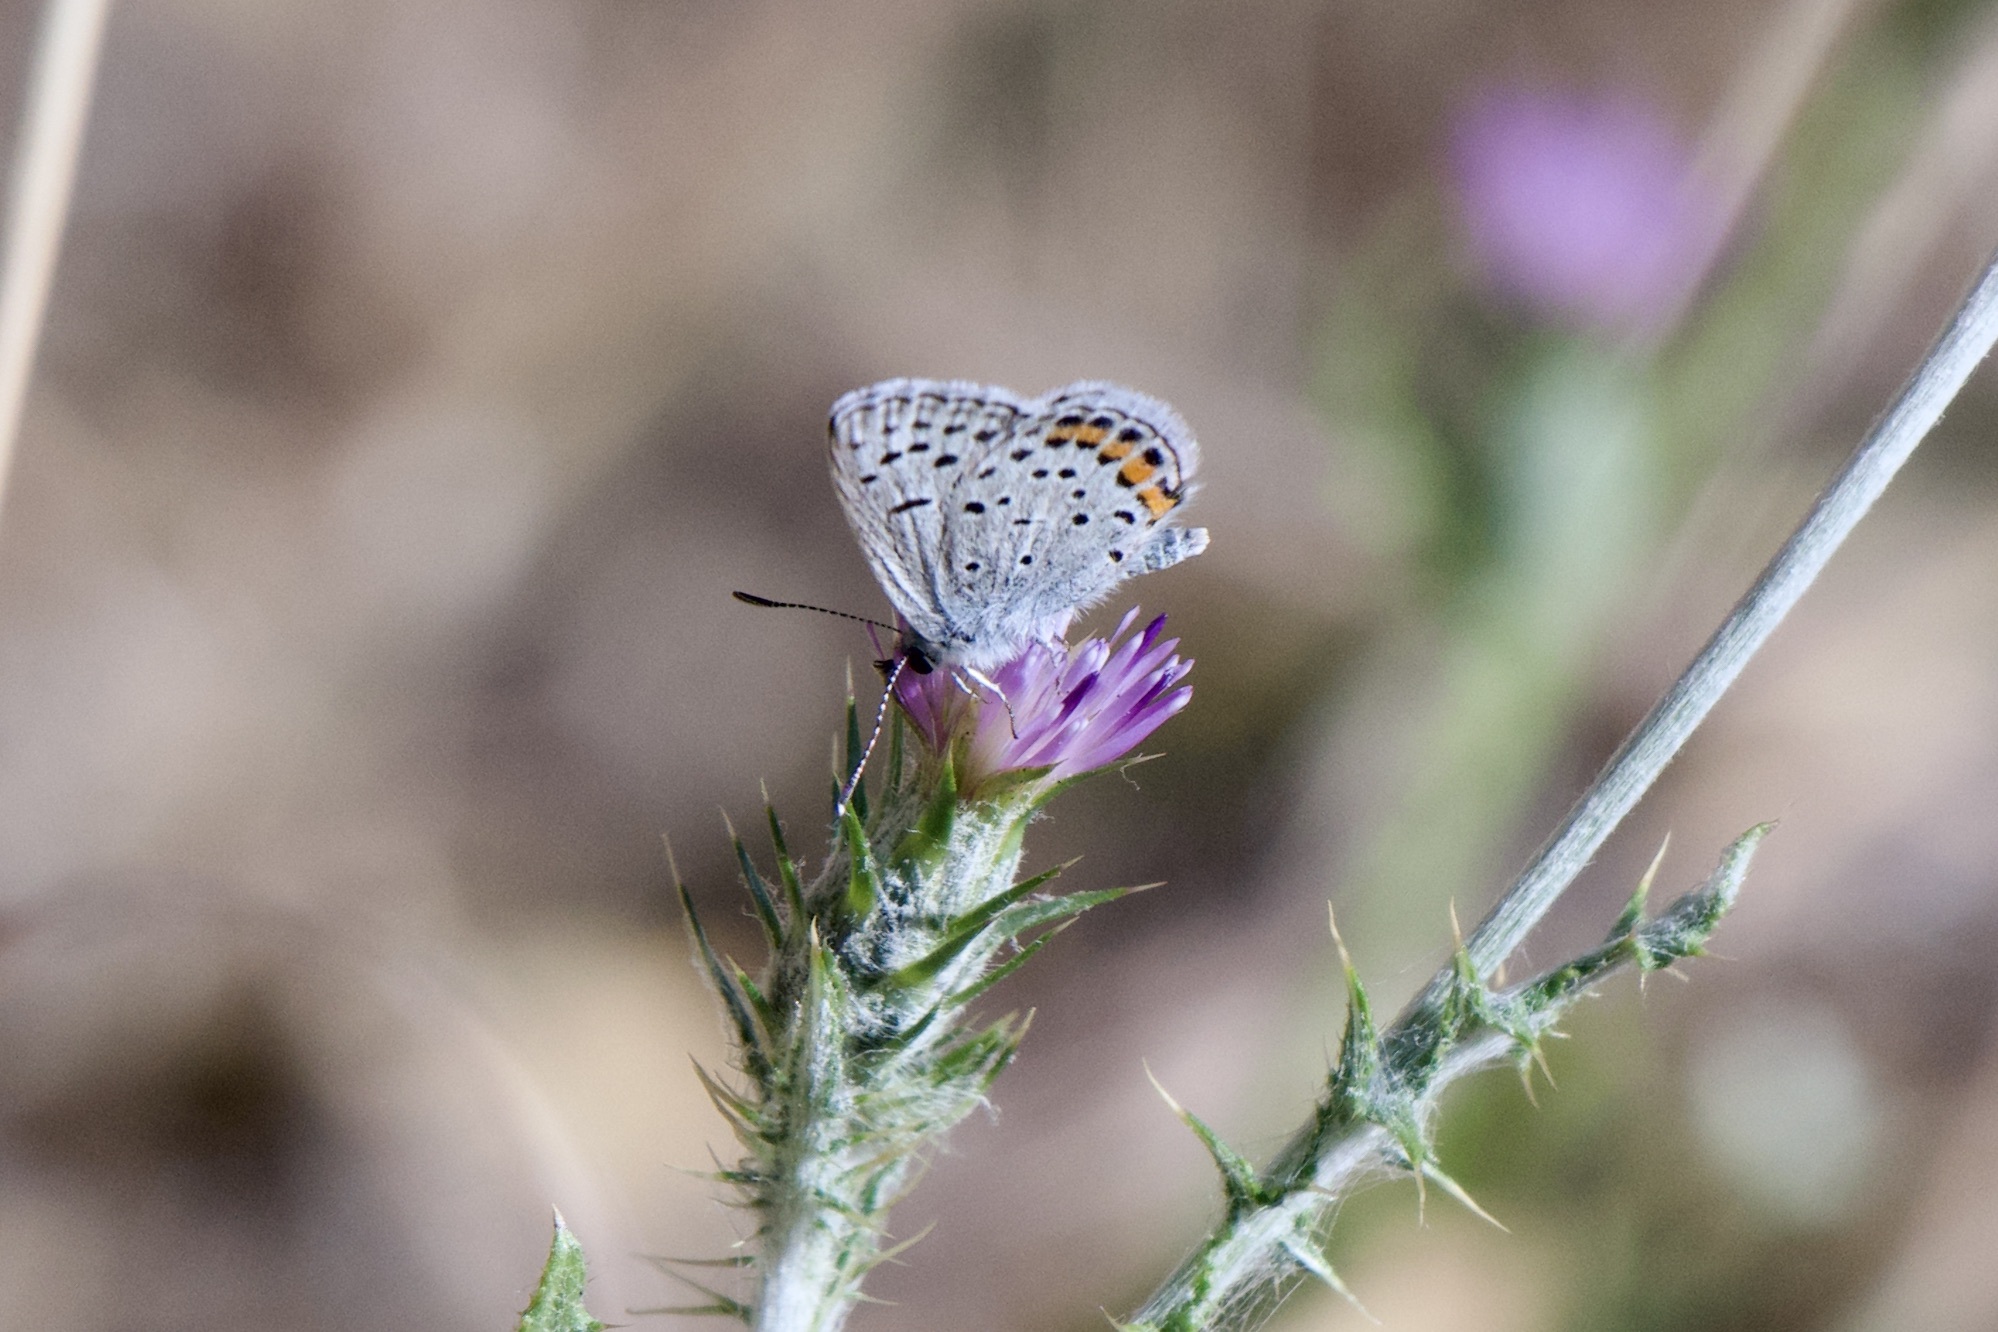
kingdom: Animalia
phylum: Arthropoda
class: Insecta
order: Lepidoptera
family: Lycaenidae
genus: Icaricia
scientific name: Icaricia acmon
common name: Acmon blue
